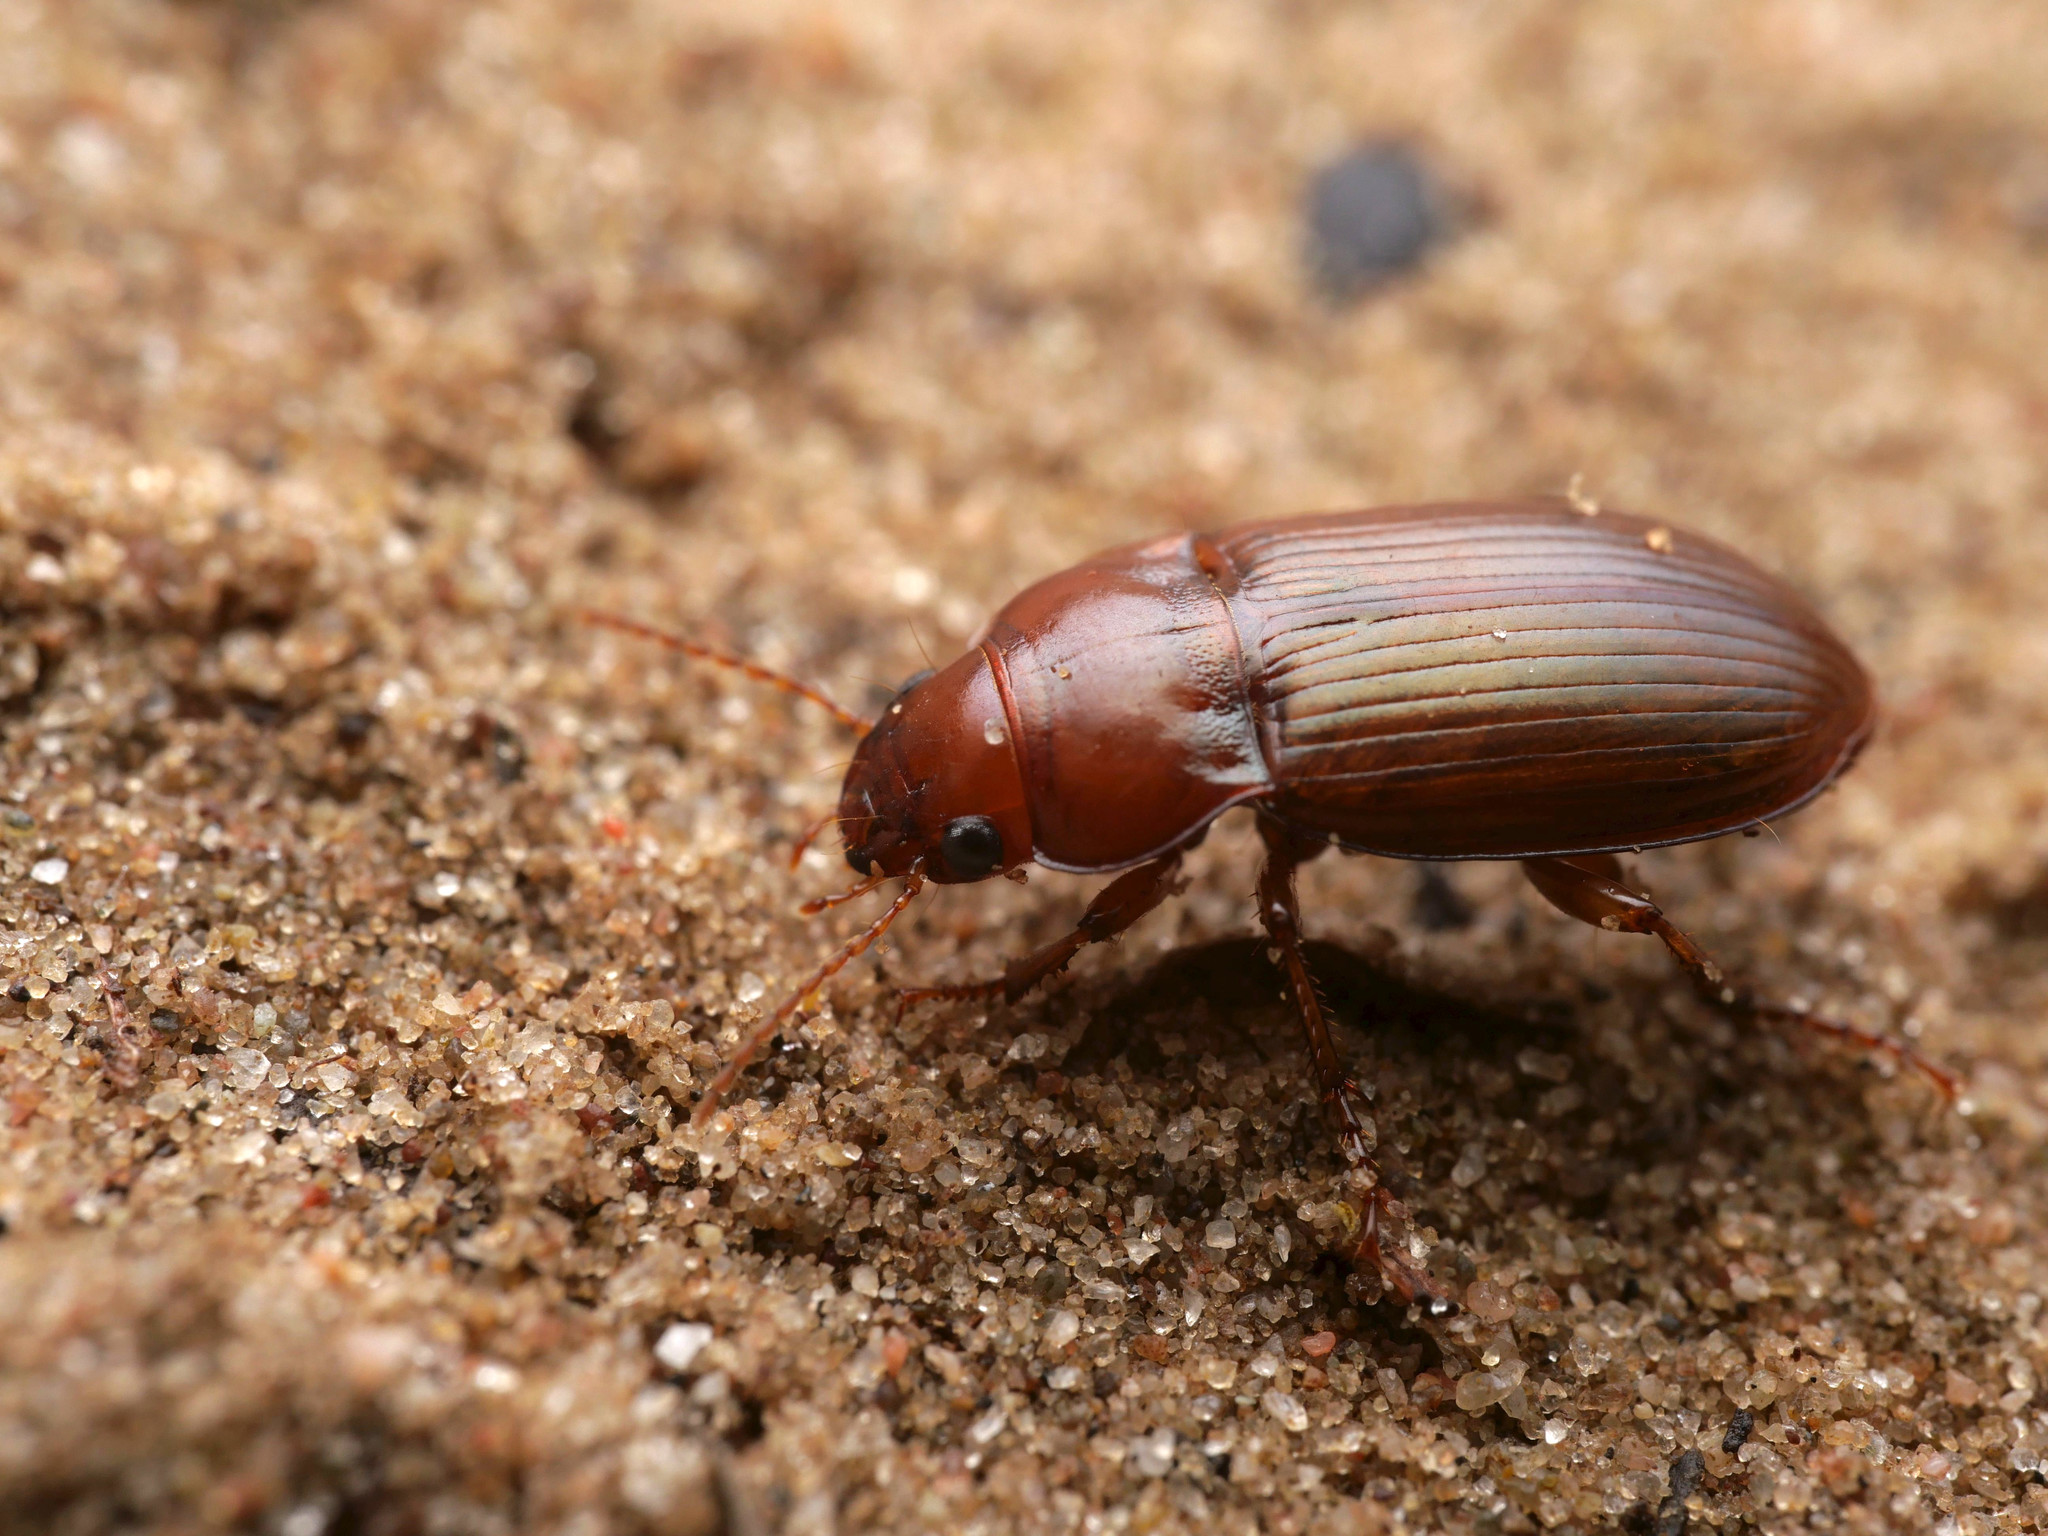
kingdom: Animalia
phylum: Arthropoda
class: Insecta
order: Coleoptera
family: Carabidae
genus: Amara
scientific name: Amara fulva
